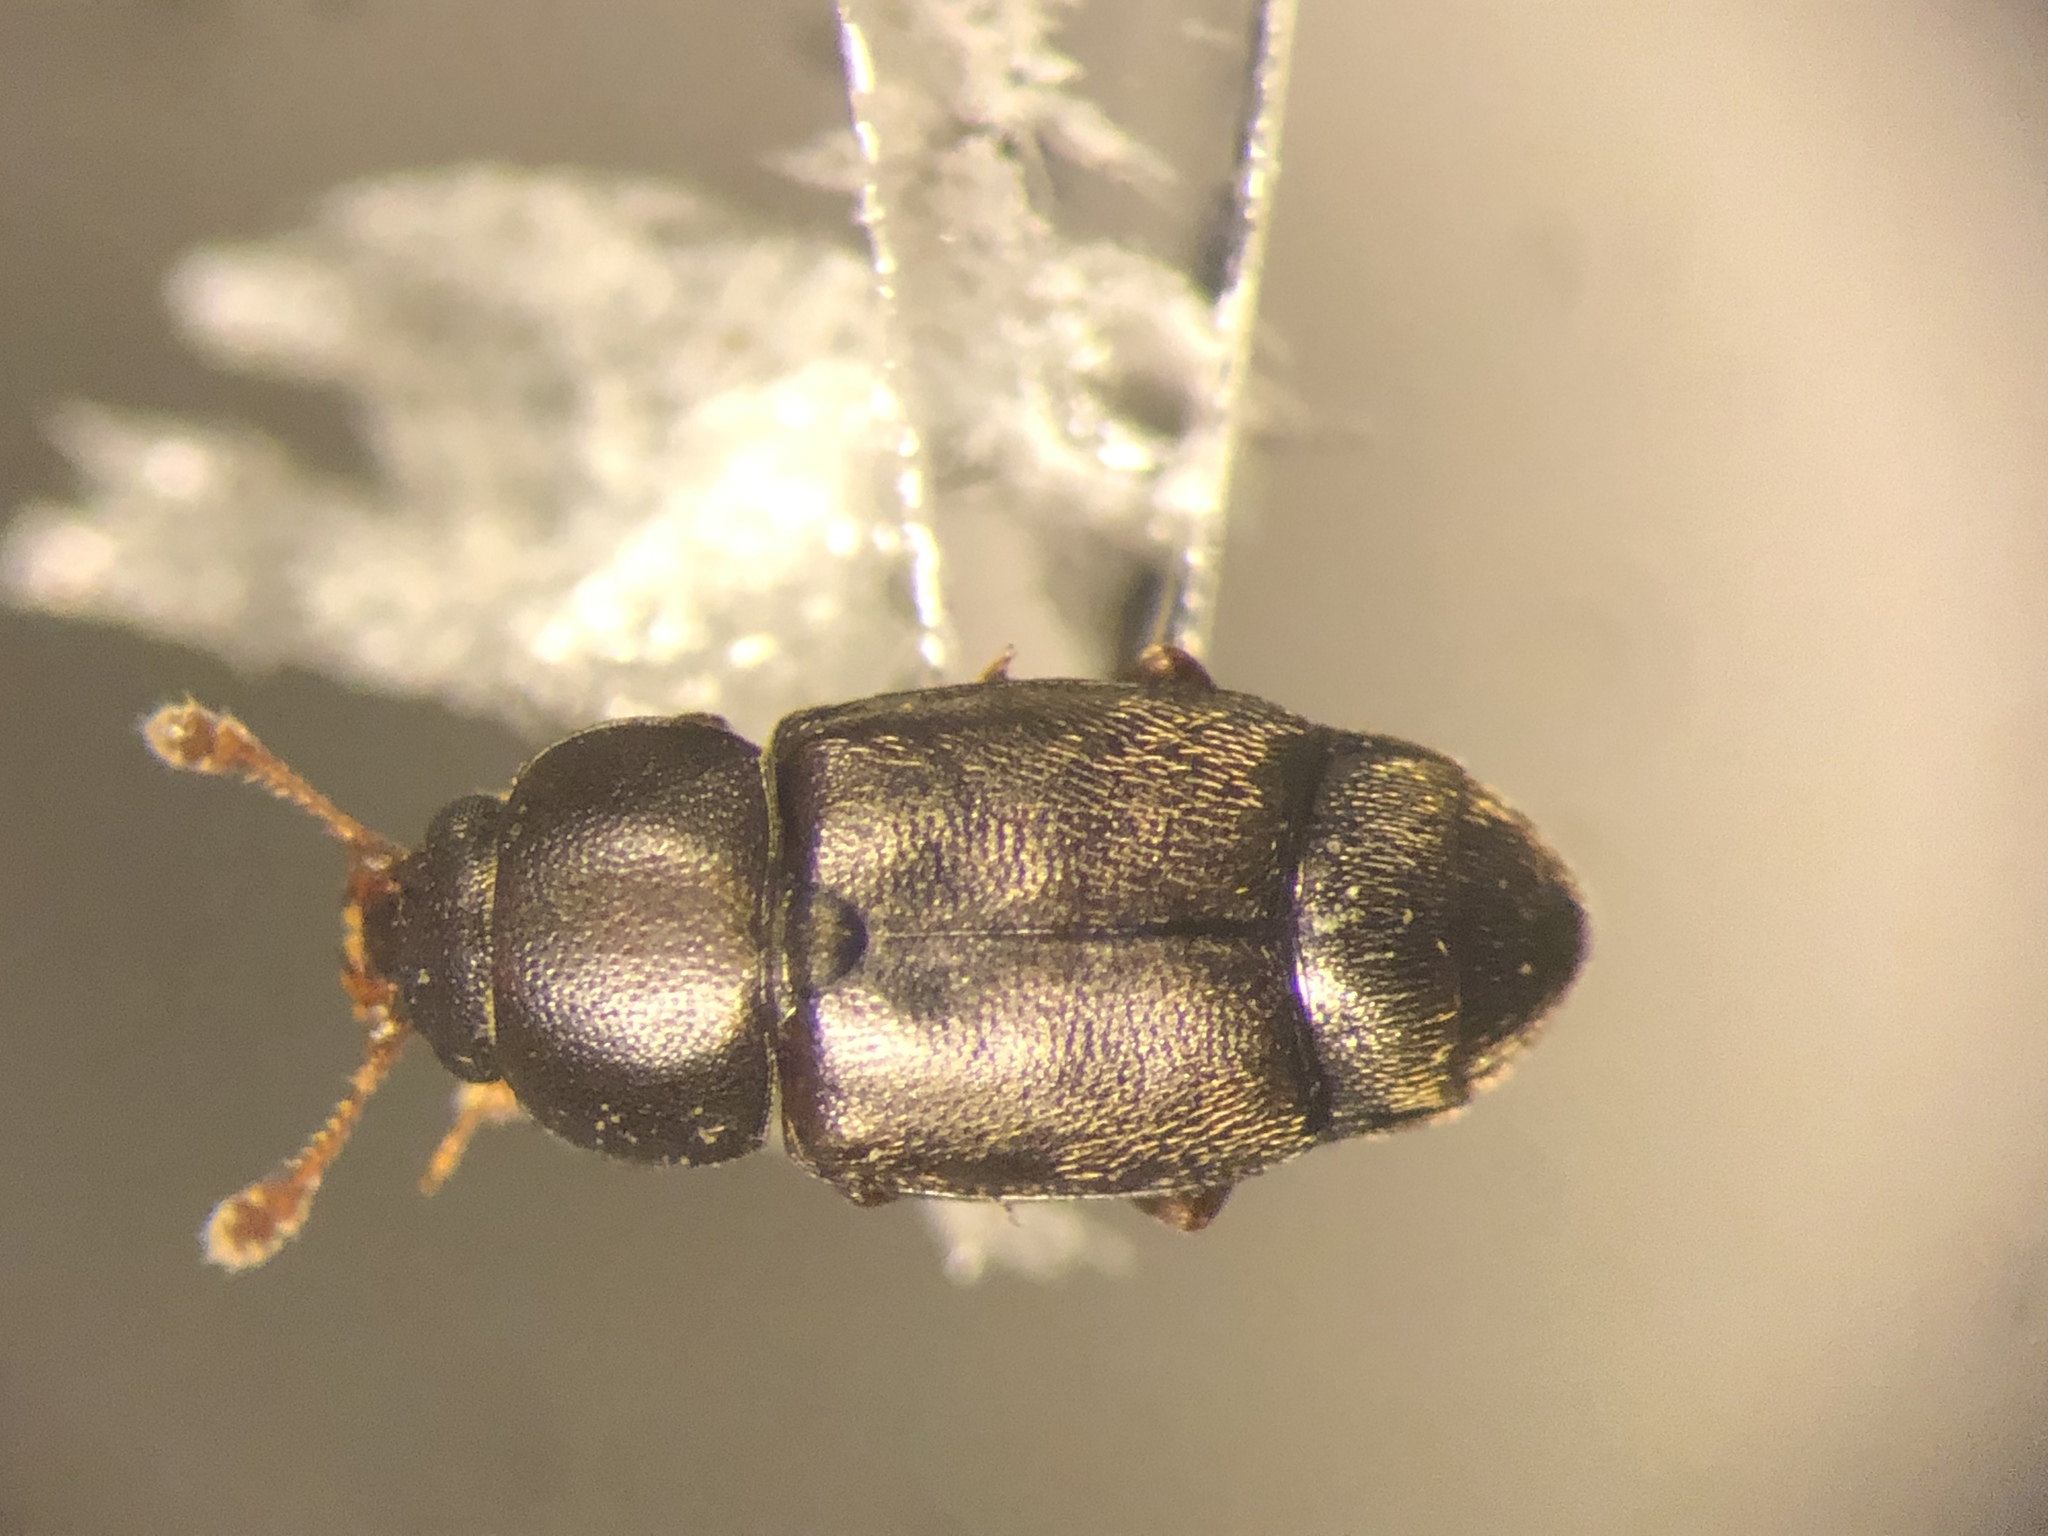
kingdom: Animalia
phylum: Arthropoda
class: Insecta
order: Coleoptera
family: Nitidulidae
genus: Carpophilus
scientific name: Carpophilus brachypterus
